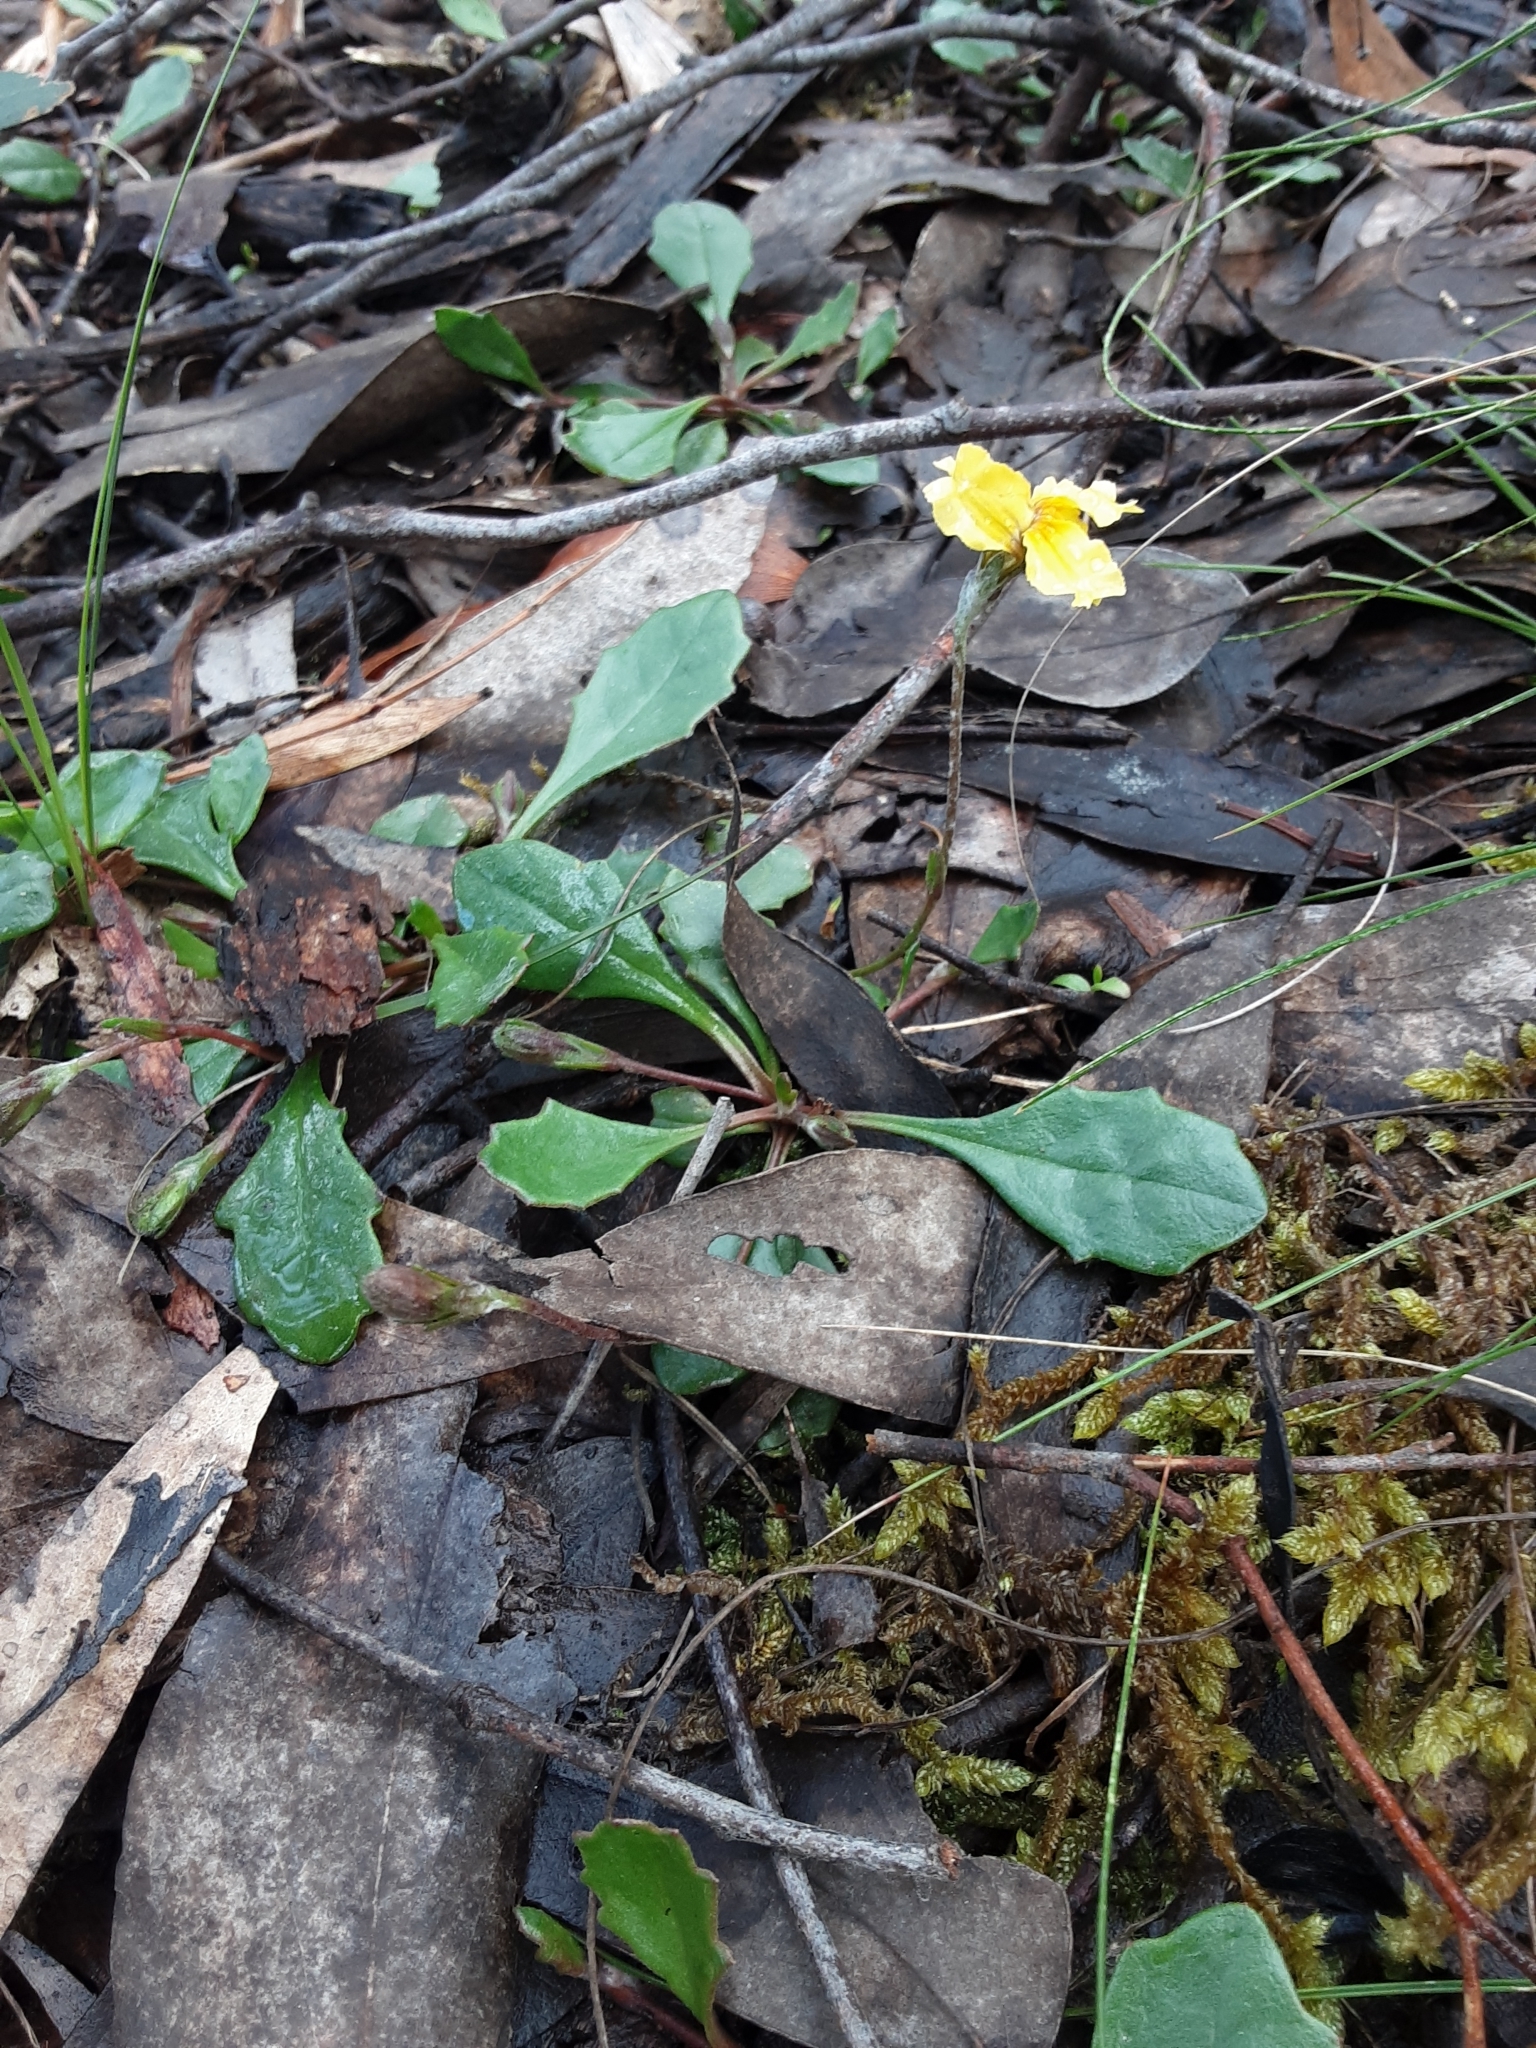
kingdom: Plantae
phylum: Tracheophyta
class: Magnoliopsida
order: Asterales
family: Goodeniaceae
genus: Goodenia
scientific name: Goodenia lanata
